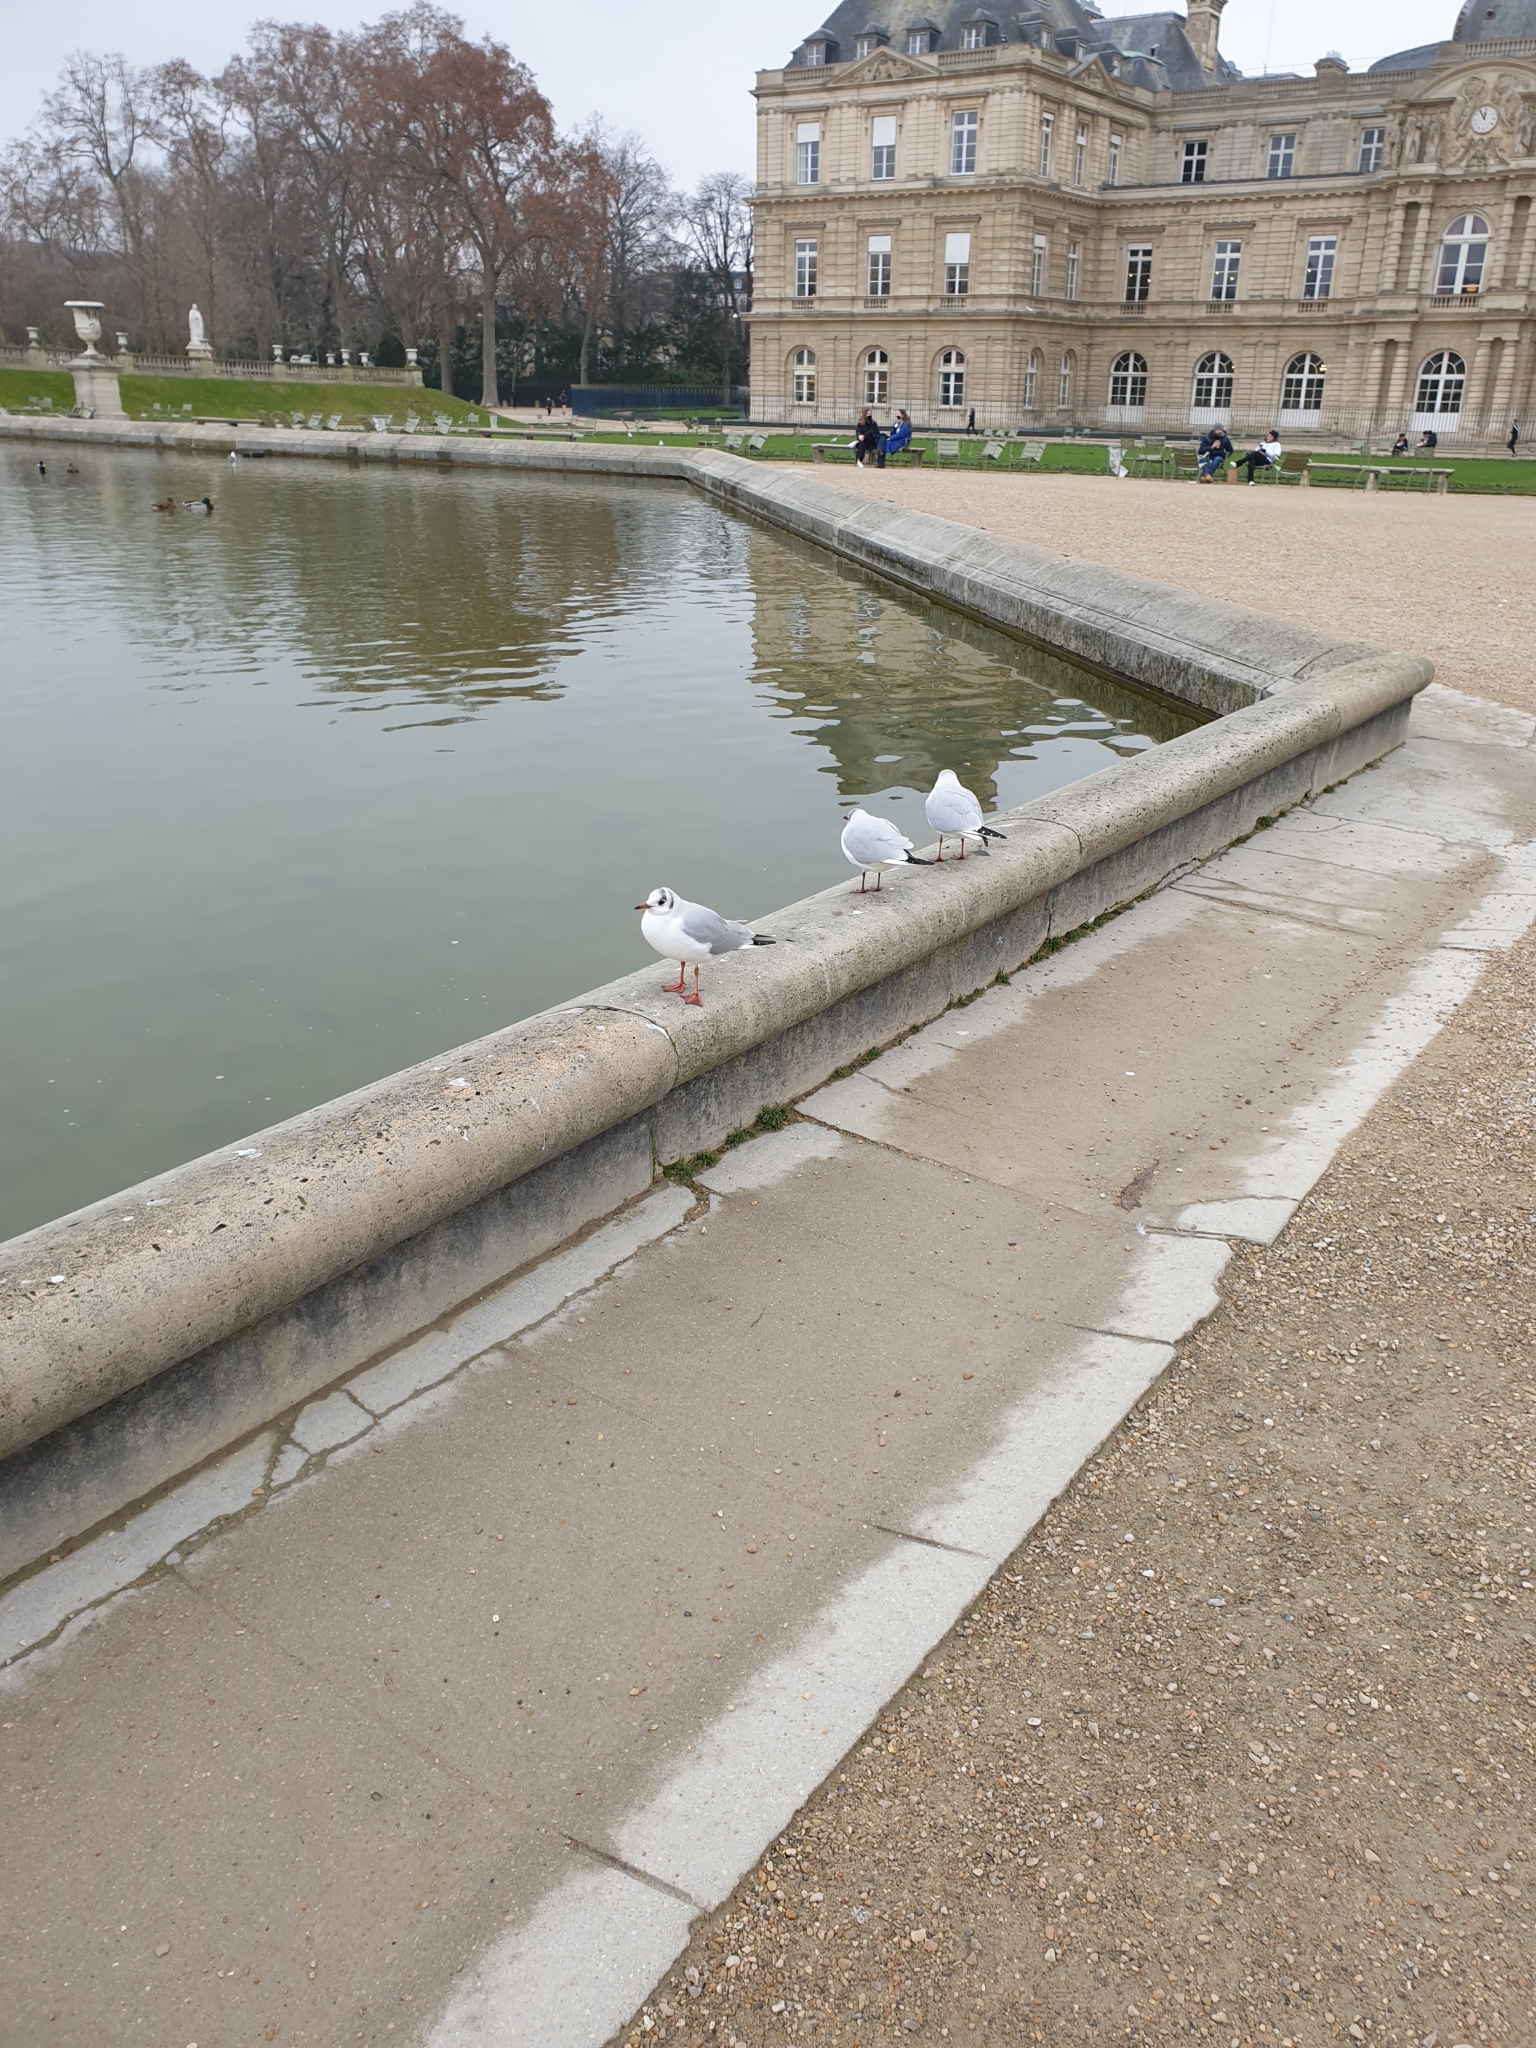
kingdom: Animalia
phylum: Chordata
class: Aves
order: Charadriiformes
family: Laridae
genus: Chroicocephalus
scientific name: Chroicocephalus ridibundus
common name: Black-headed gull
